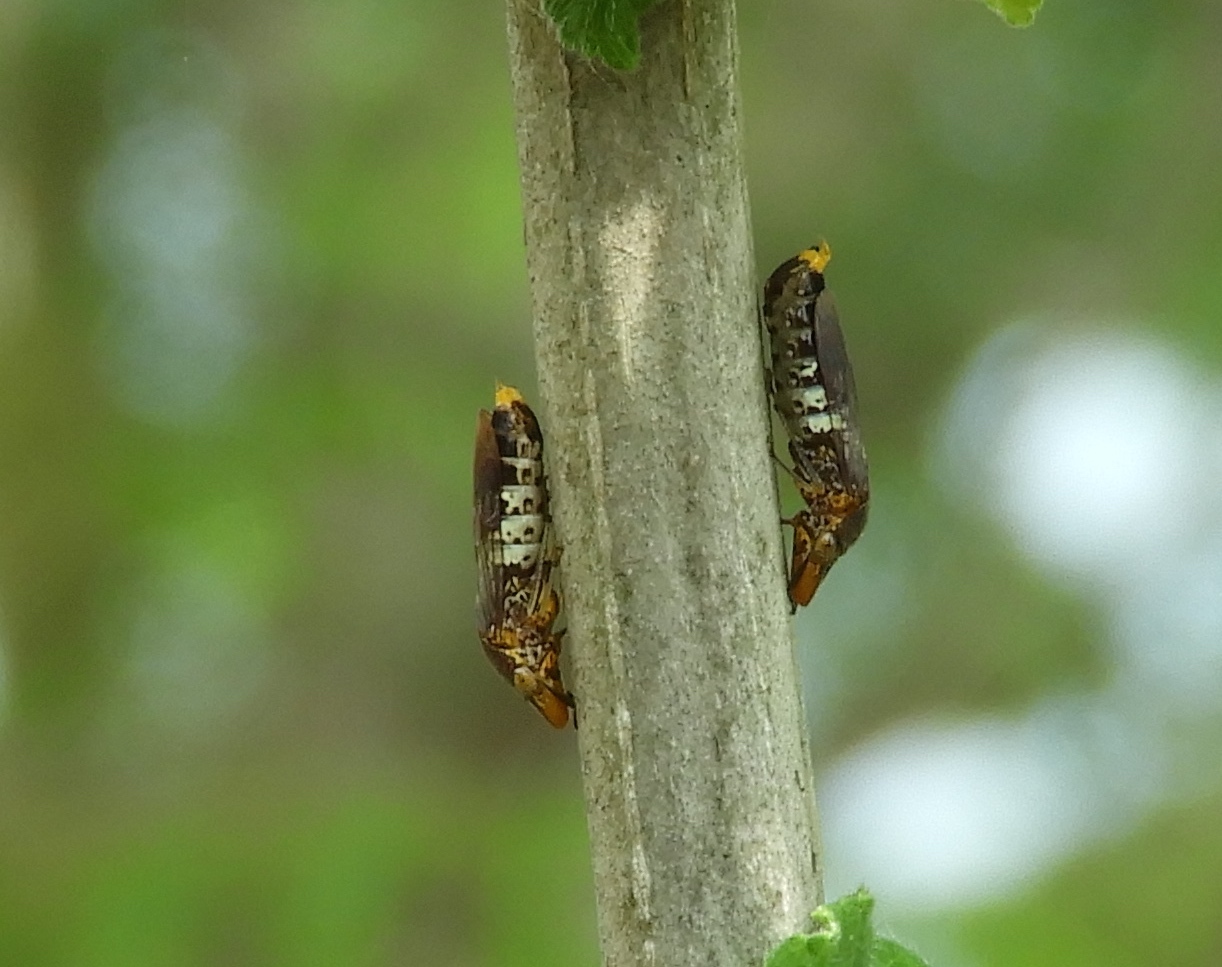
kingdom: Animalia
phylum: Arthropoda
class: Insecta
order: Hemiptera
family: Cicadellidae
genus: Homalodisca
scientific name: Homalodisca ichthyocephala
